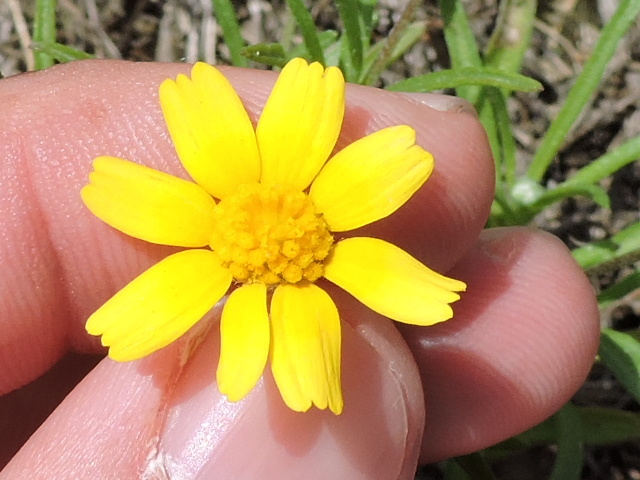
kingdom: Plantae
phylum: Tracheophyta
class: Magnoliopsida
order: Asterales
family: Asteraceae
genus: Tetraneuris
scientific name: Tetraneuris linearifolia
